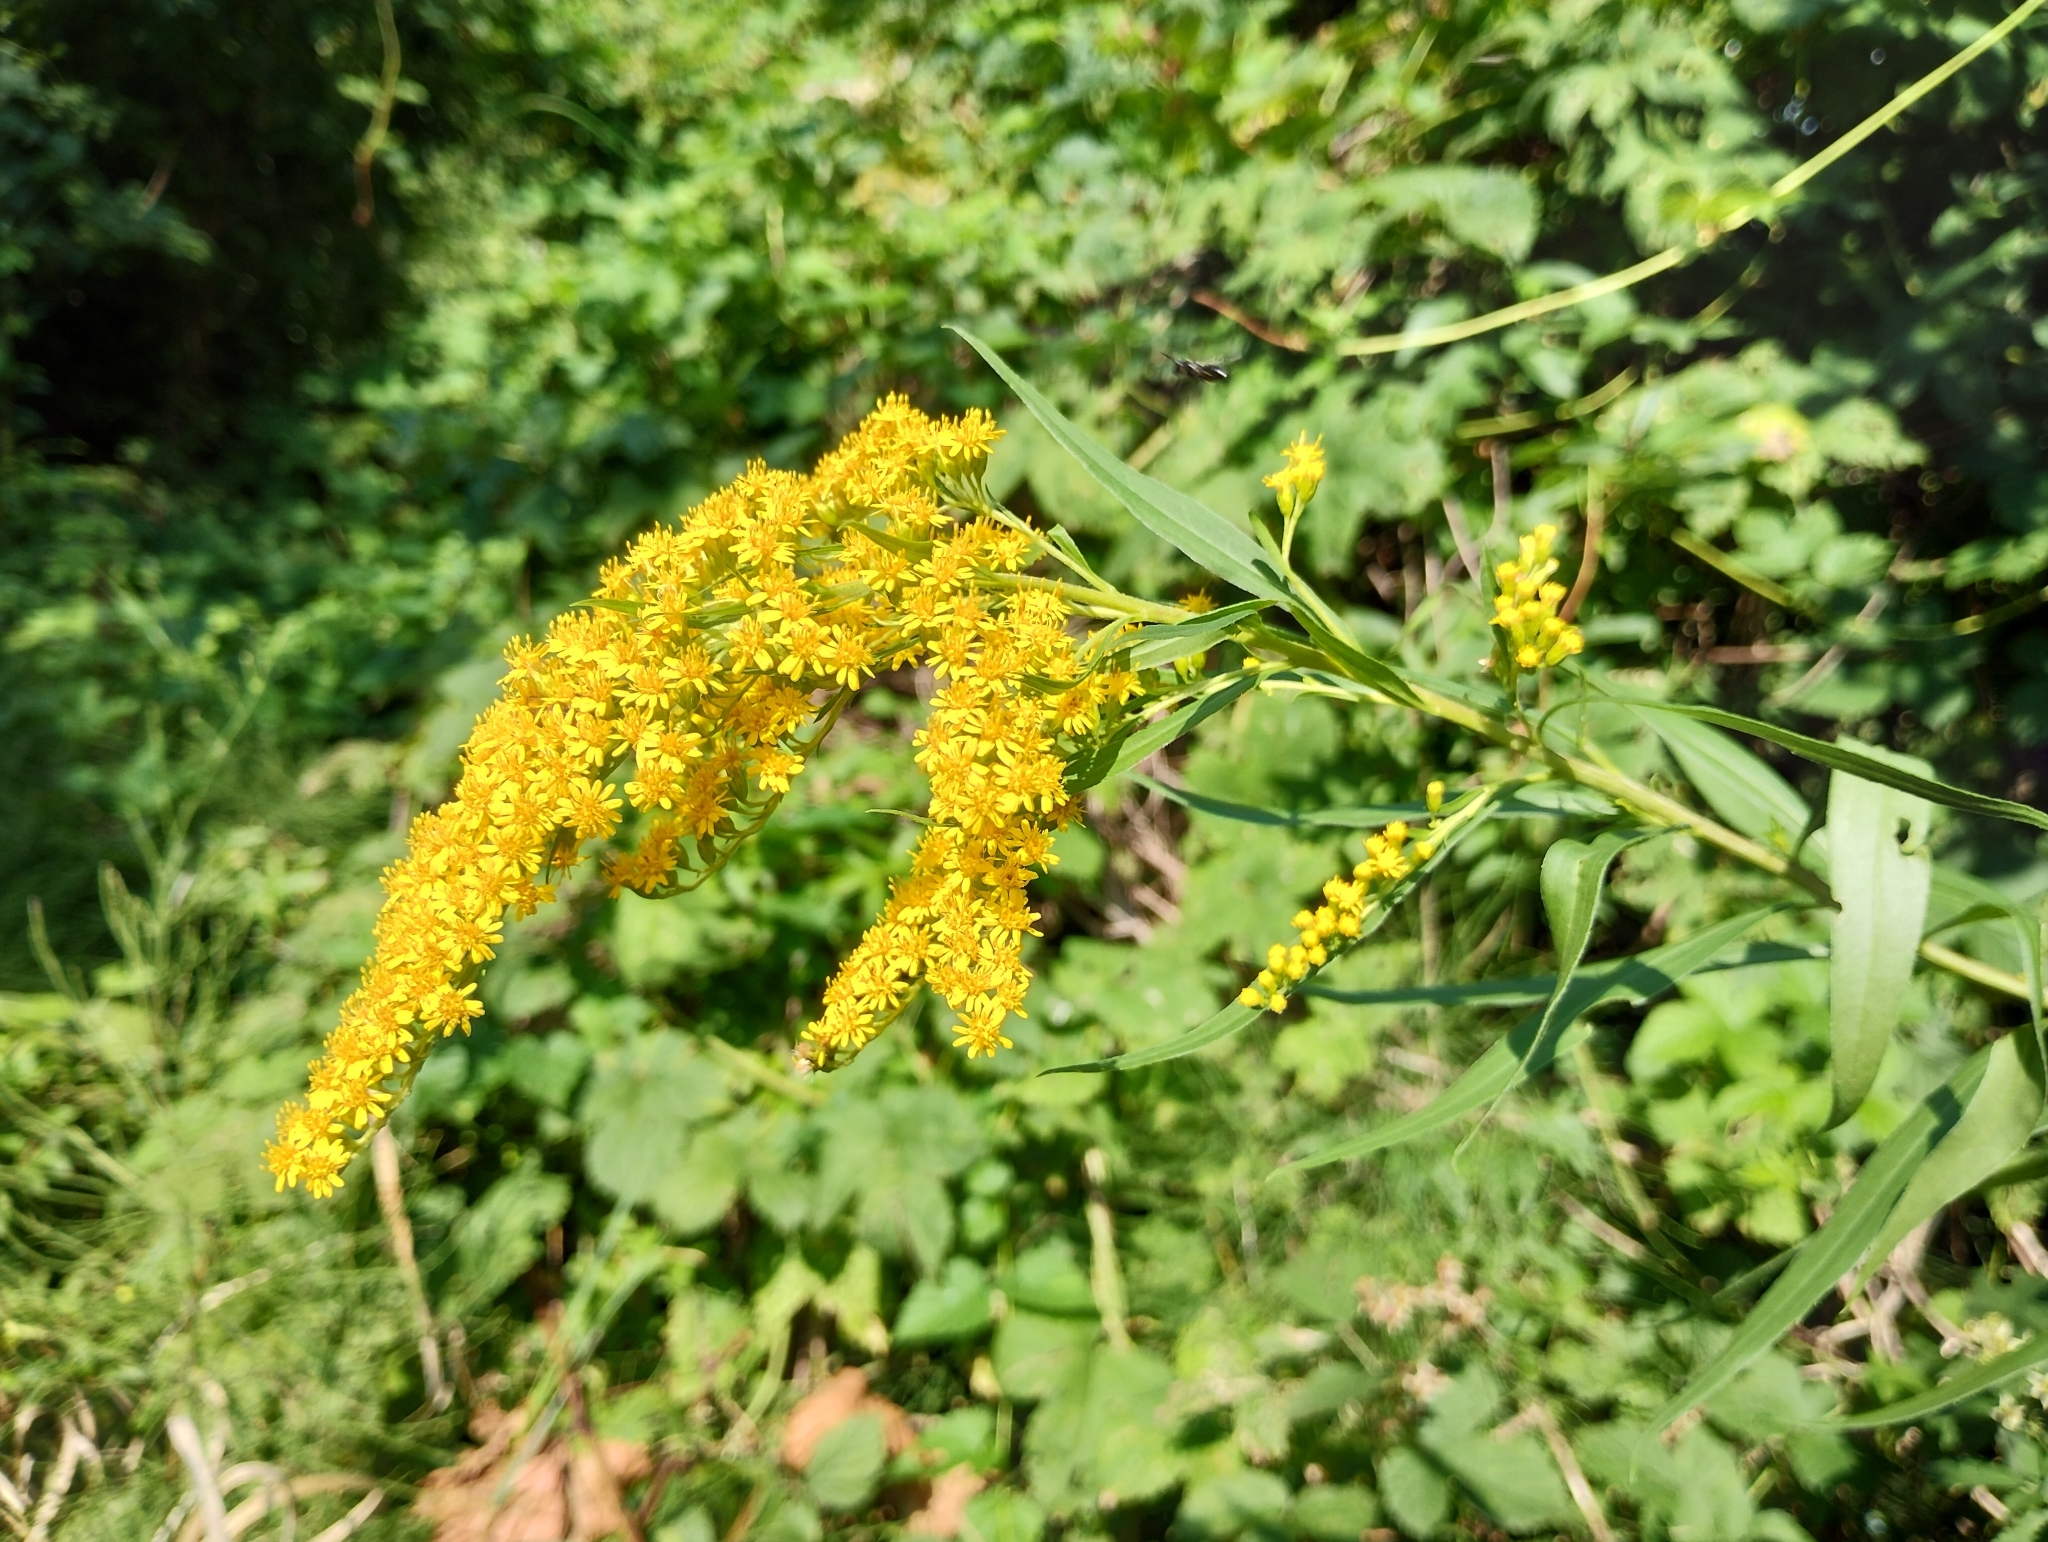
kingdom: Plantae
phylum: Tracheophyta
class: Magnoliopsida
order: Asterales
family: Asteraceae
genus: Solidago
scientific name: Solidago gigantea
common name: Giant goldenrod
